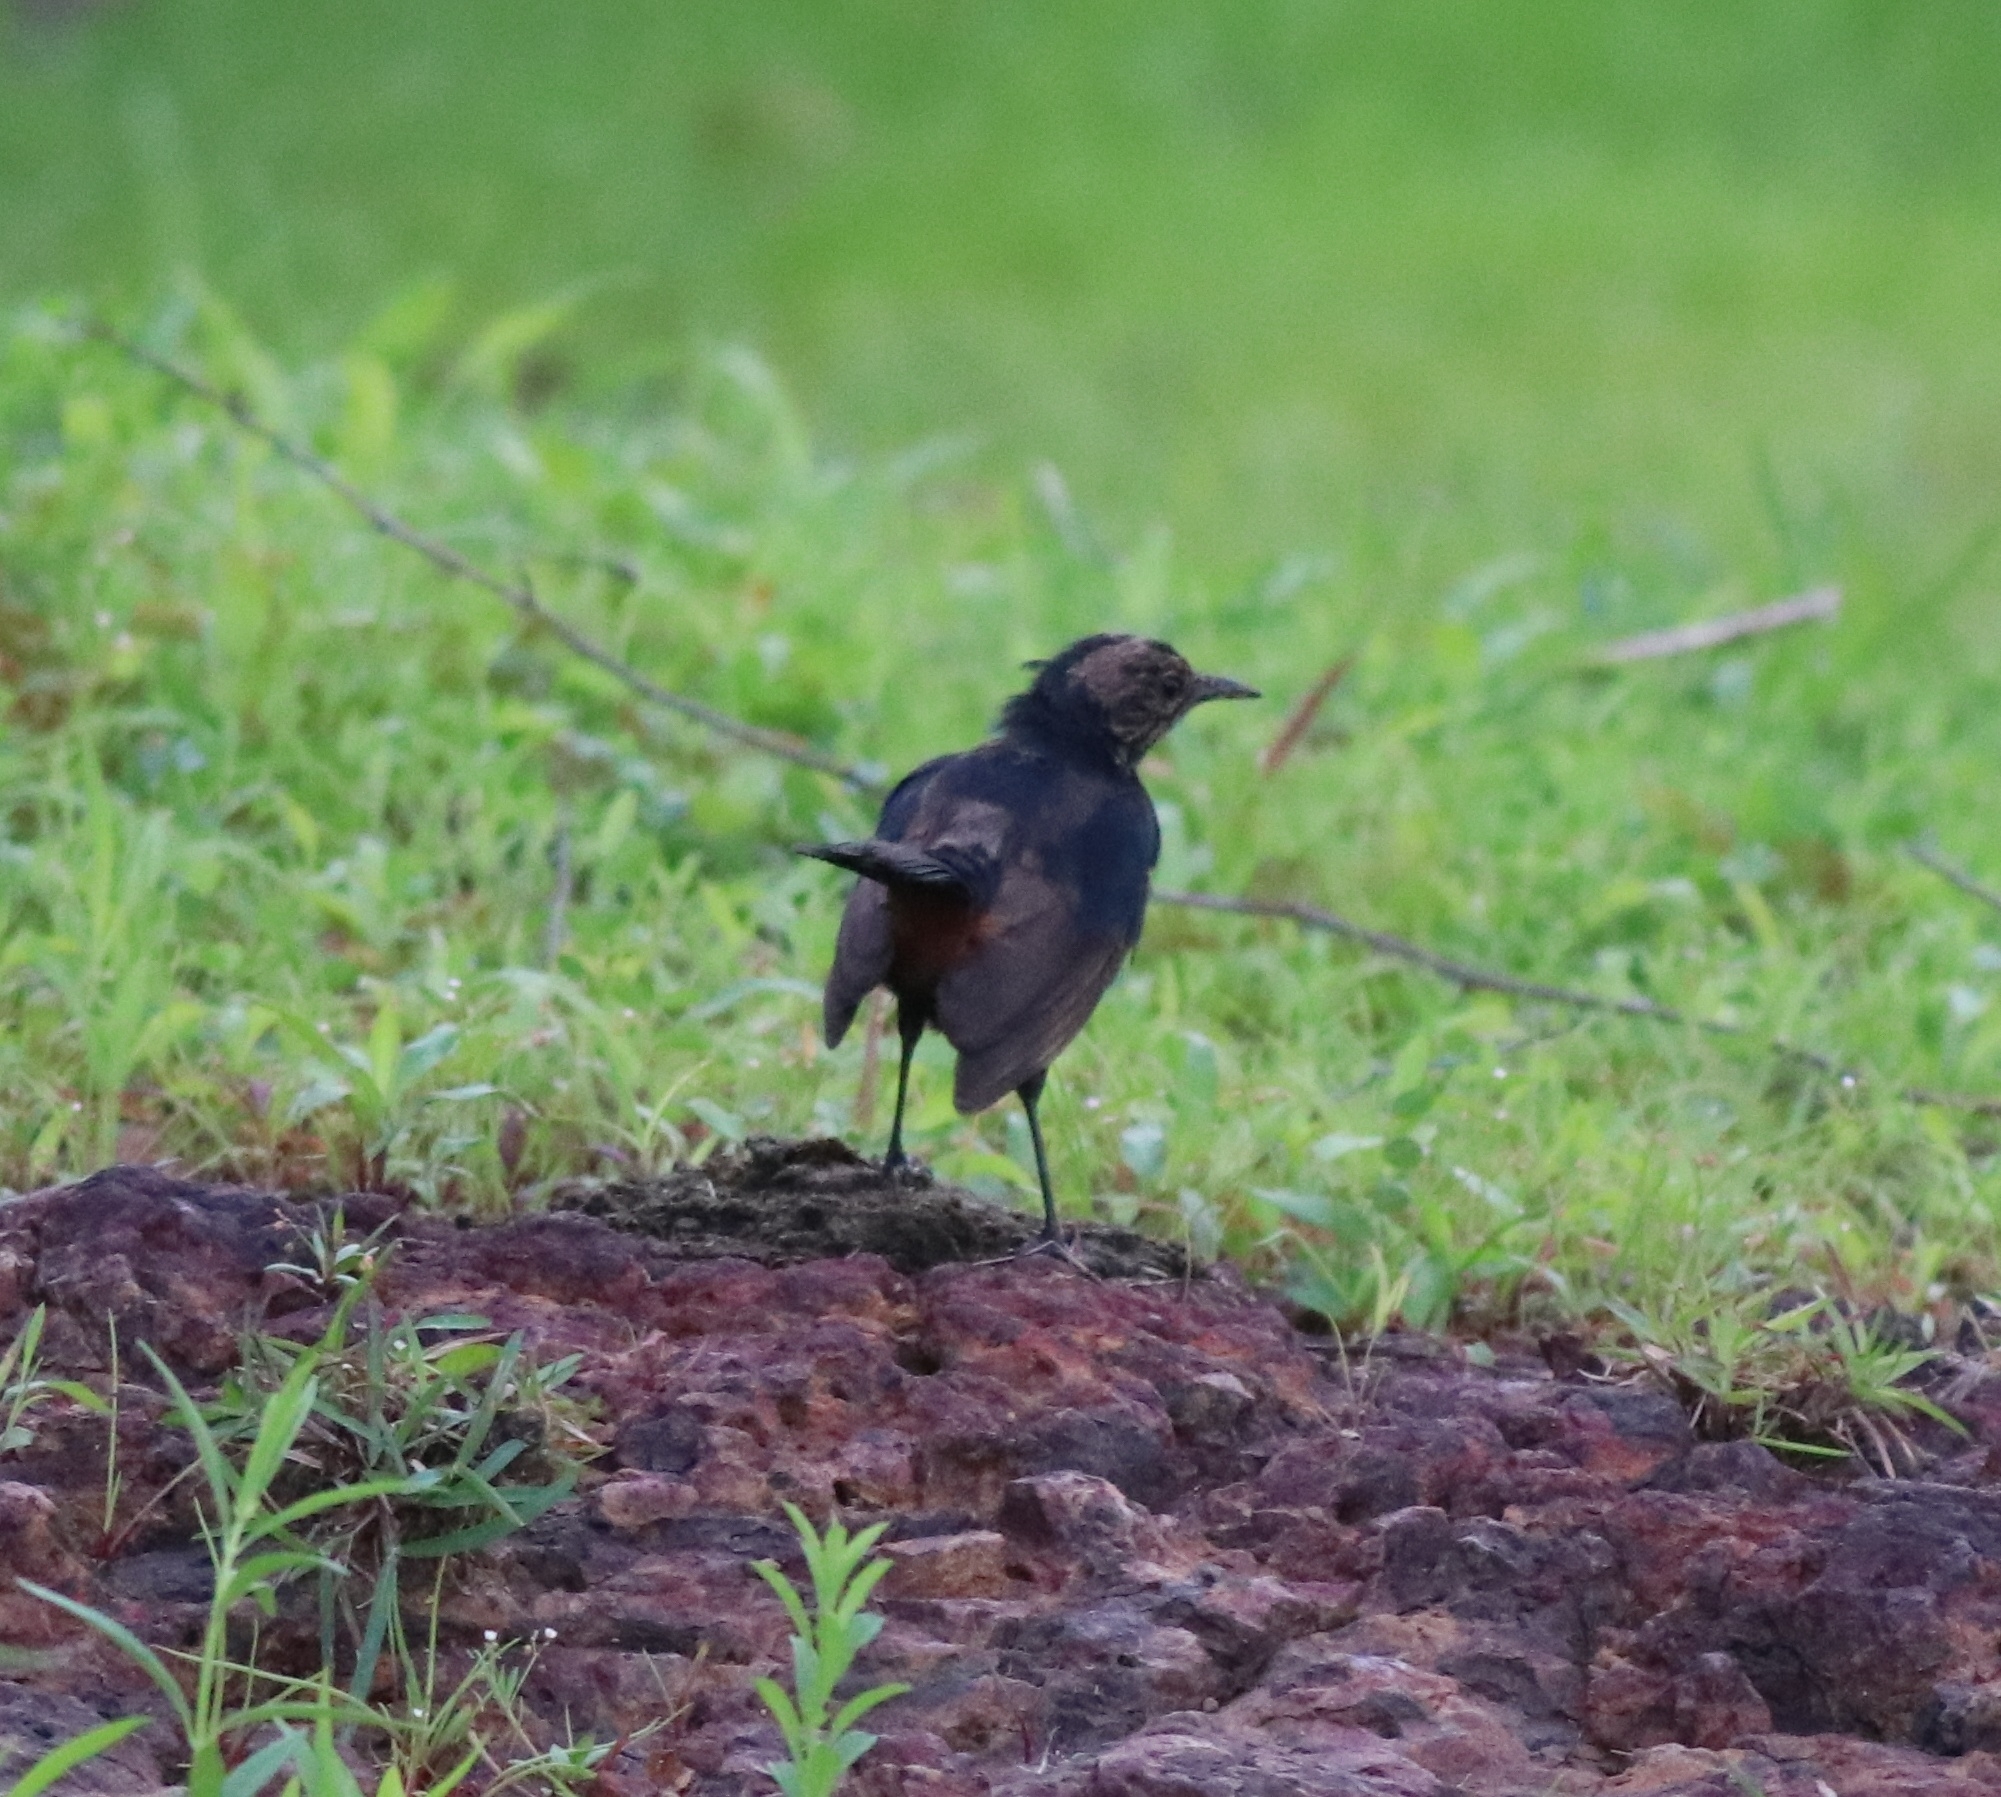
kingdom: Animalia
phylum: Chordata
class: Aves
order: Passeriformes
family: Muscicapidae
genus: Saxicoloides
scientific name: Saxicoloides fulicatus
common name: Indian robin
